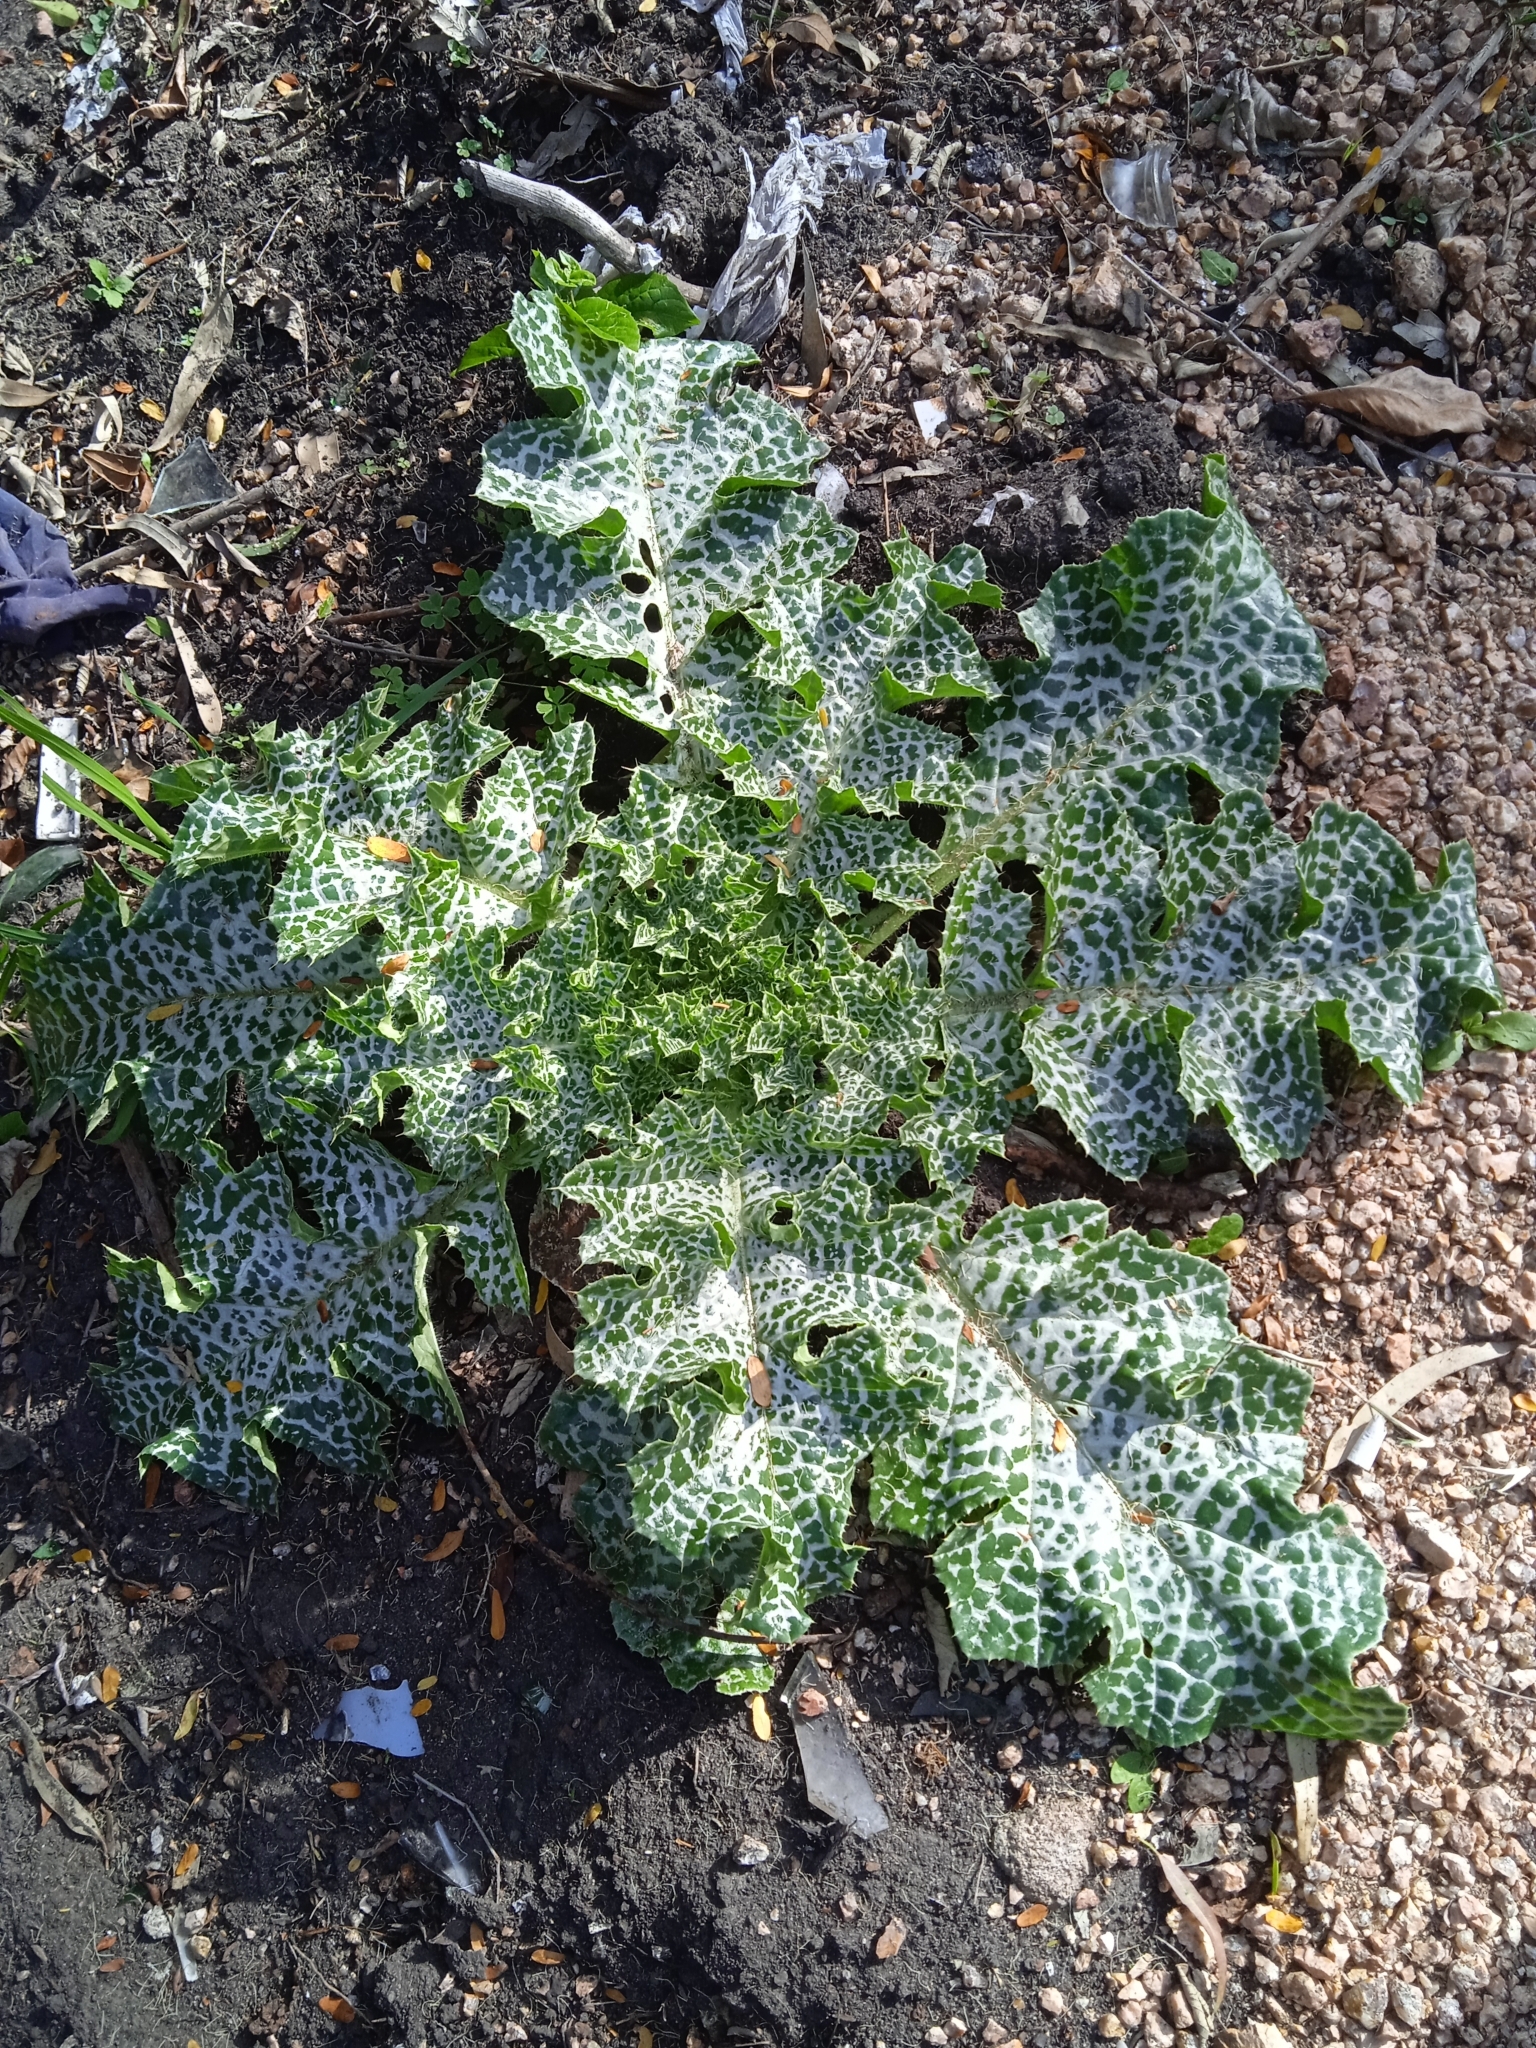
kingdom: Plantae
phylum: Tracheophyta
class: Magnoliopsida
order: Asterales
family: Asteraceae
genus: Silybum
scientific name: Silybum marianum
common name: Milk thistle
